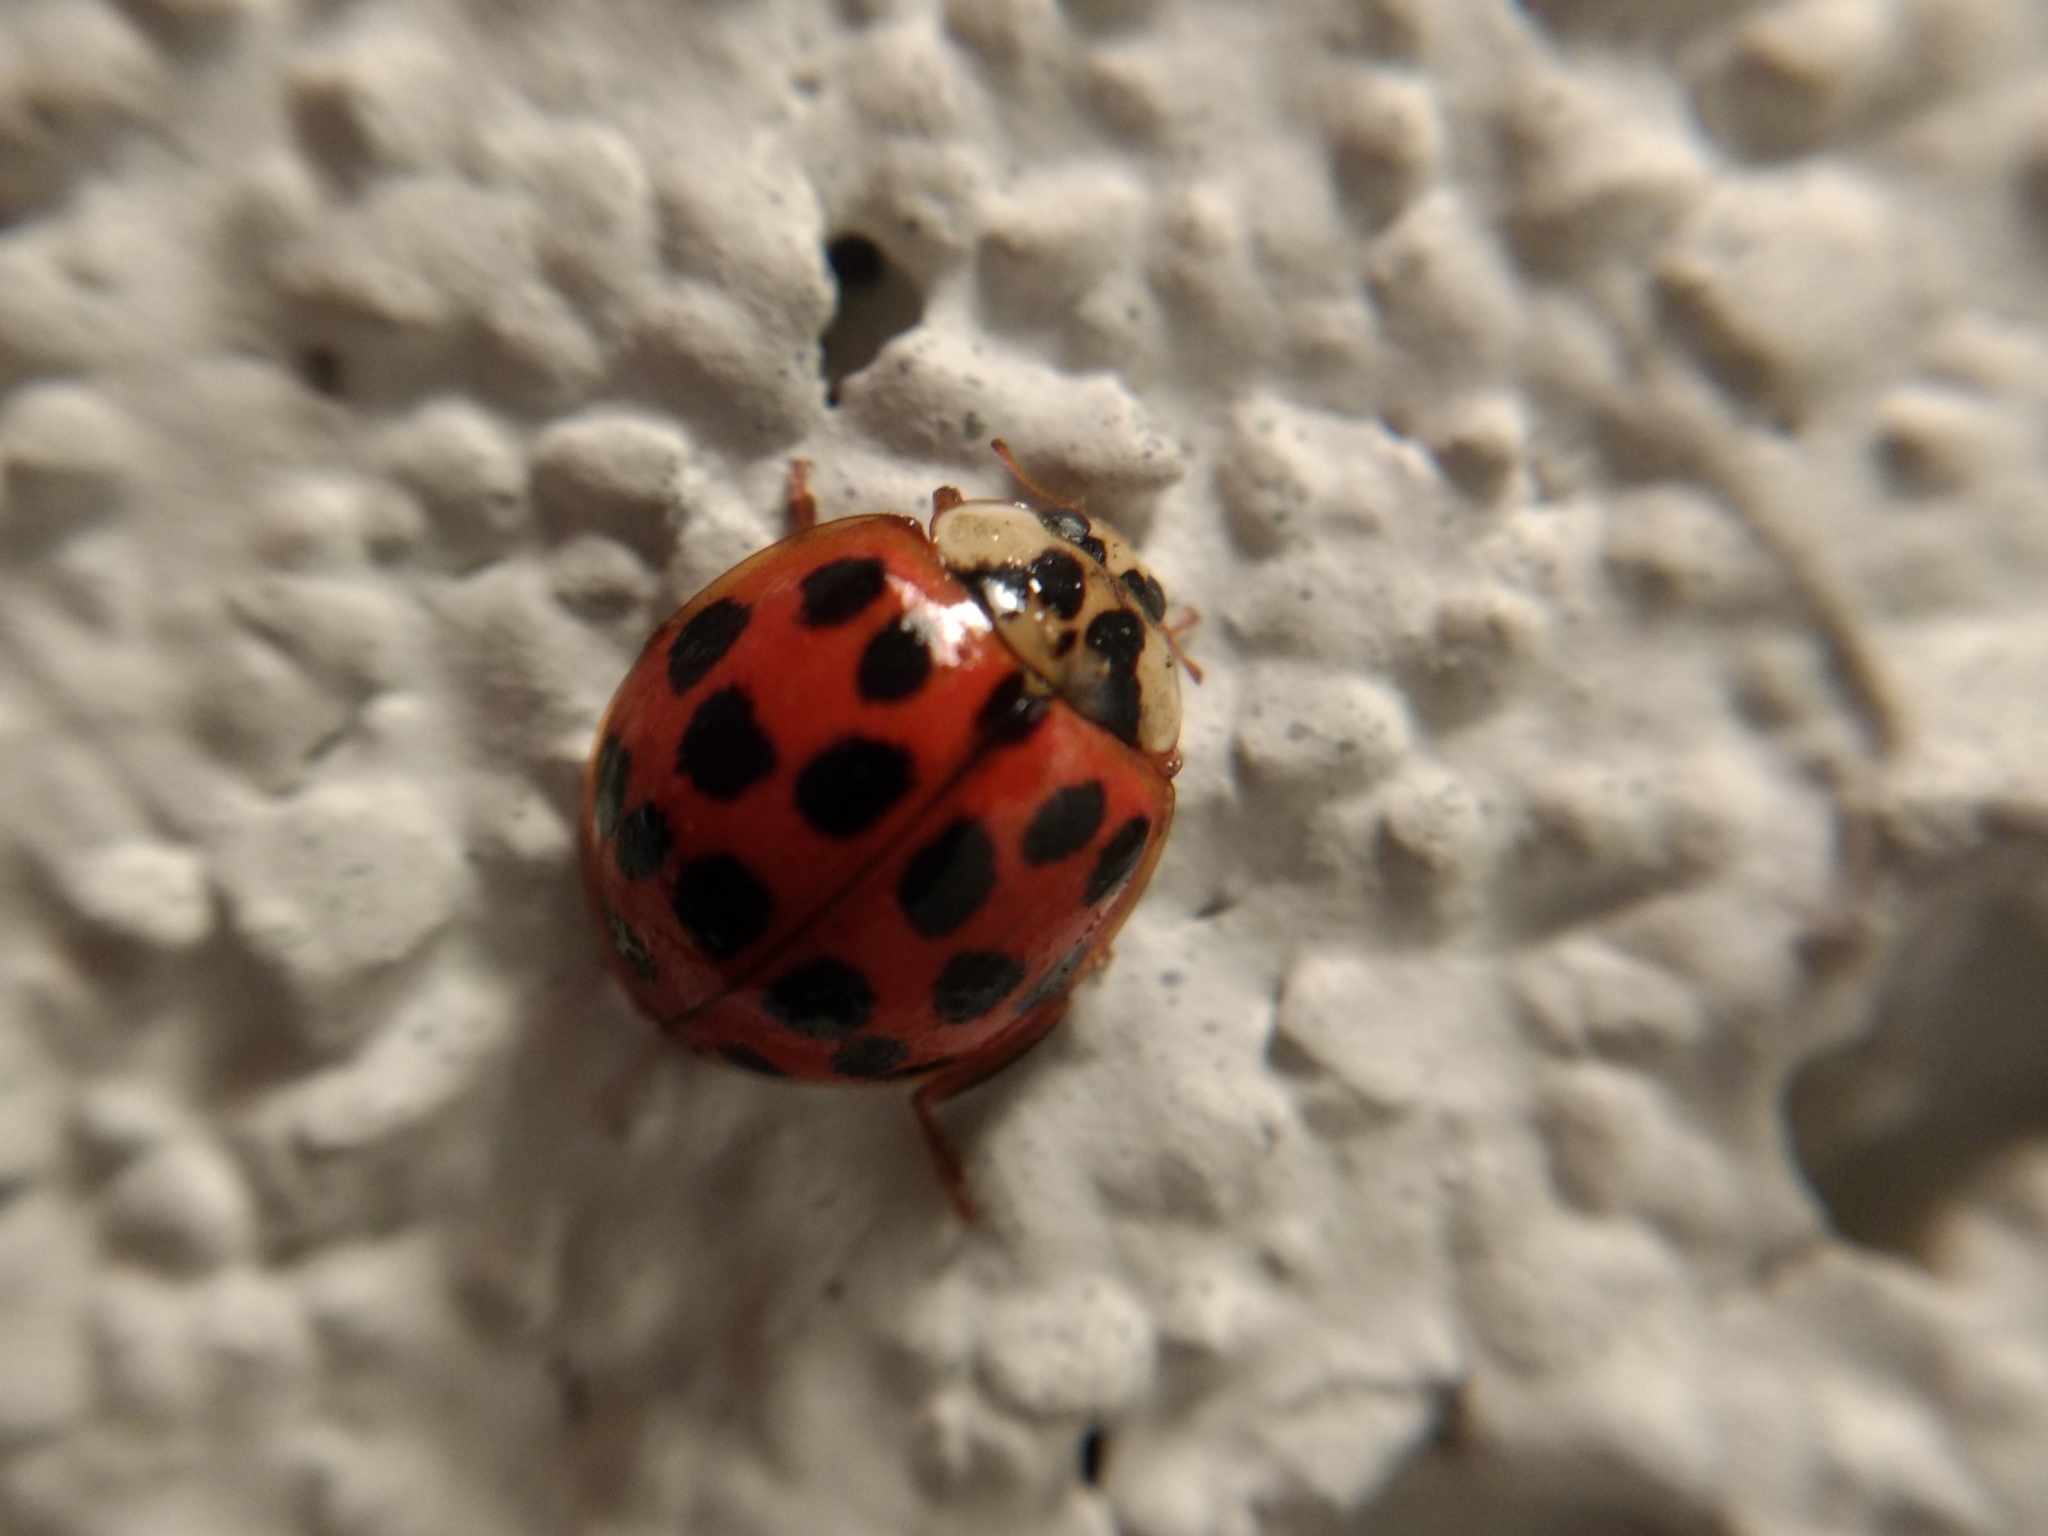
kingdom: Animalia
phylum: Arthropoda
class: Insecta
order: Coleoptera
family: Coccinellidae
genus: Harmonia
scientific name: Harmonia axyridis
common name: Harlequin ladybird
